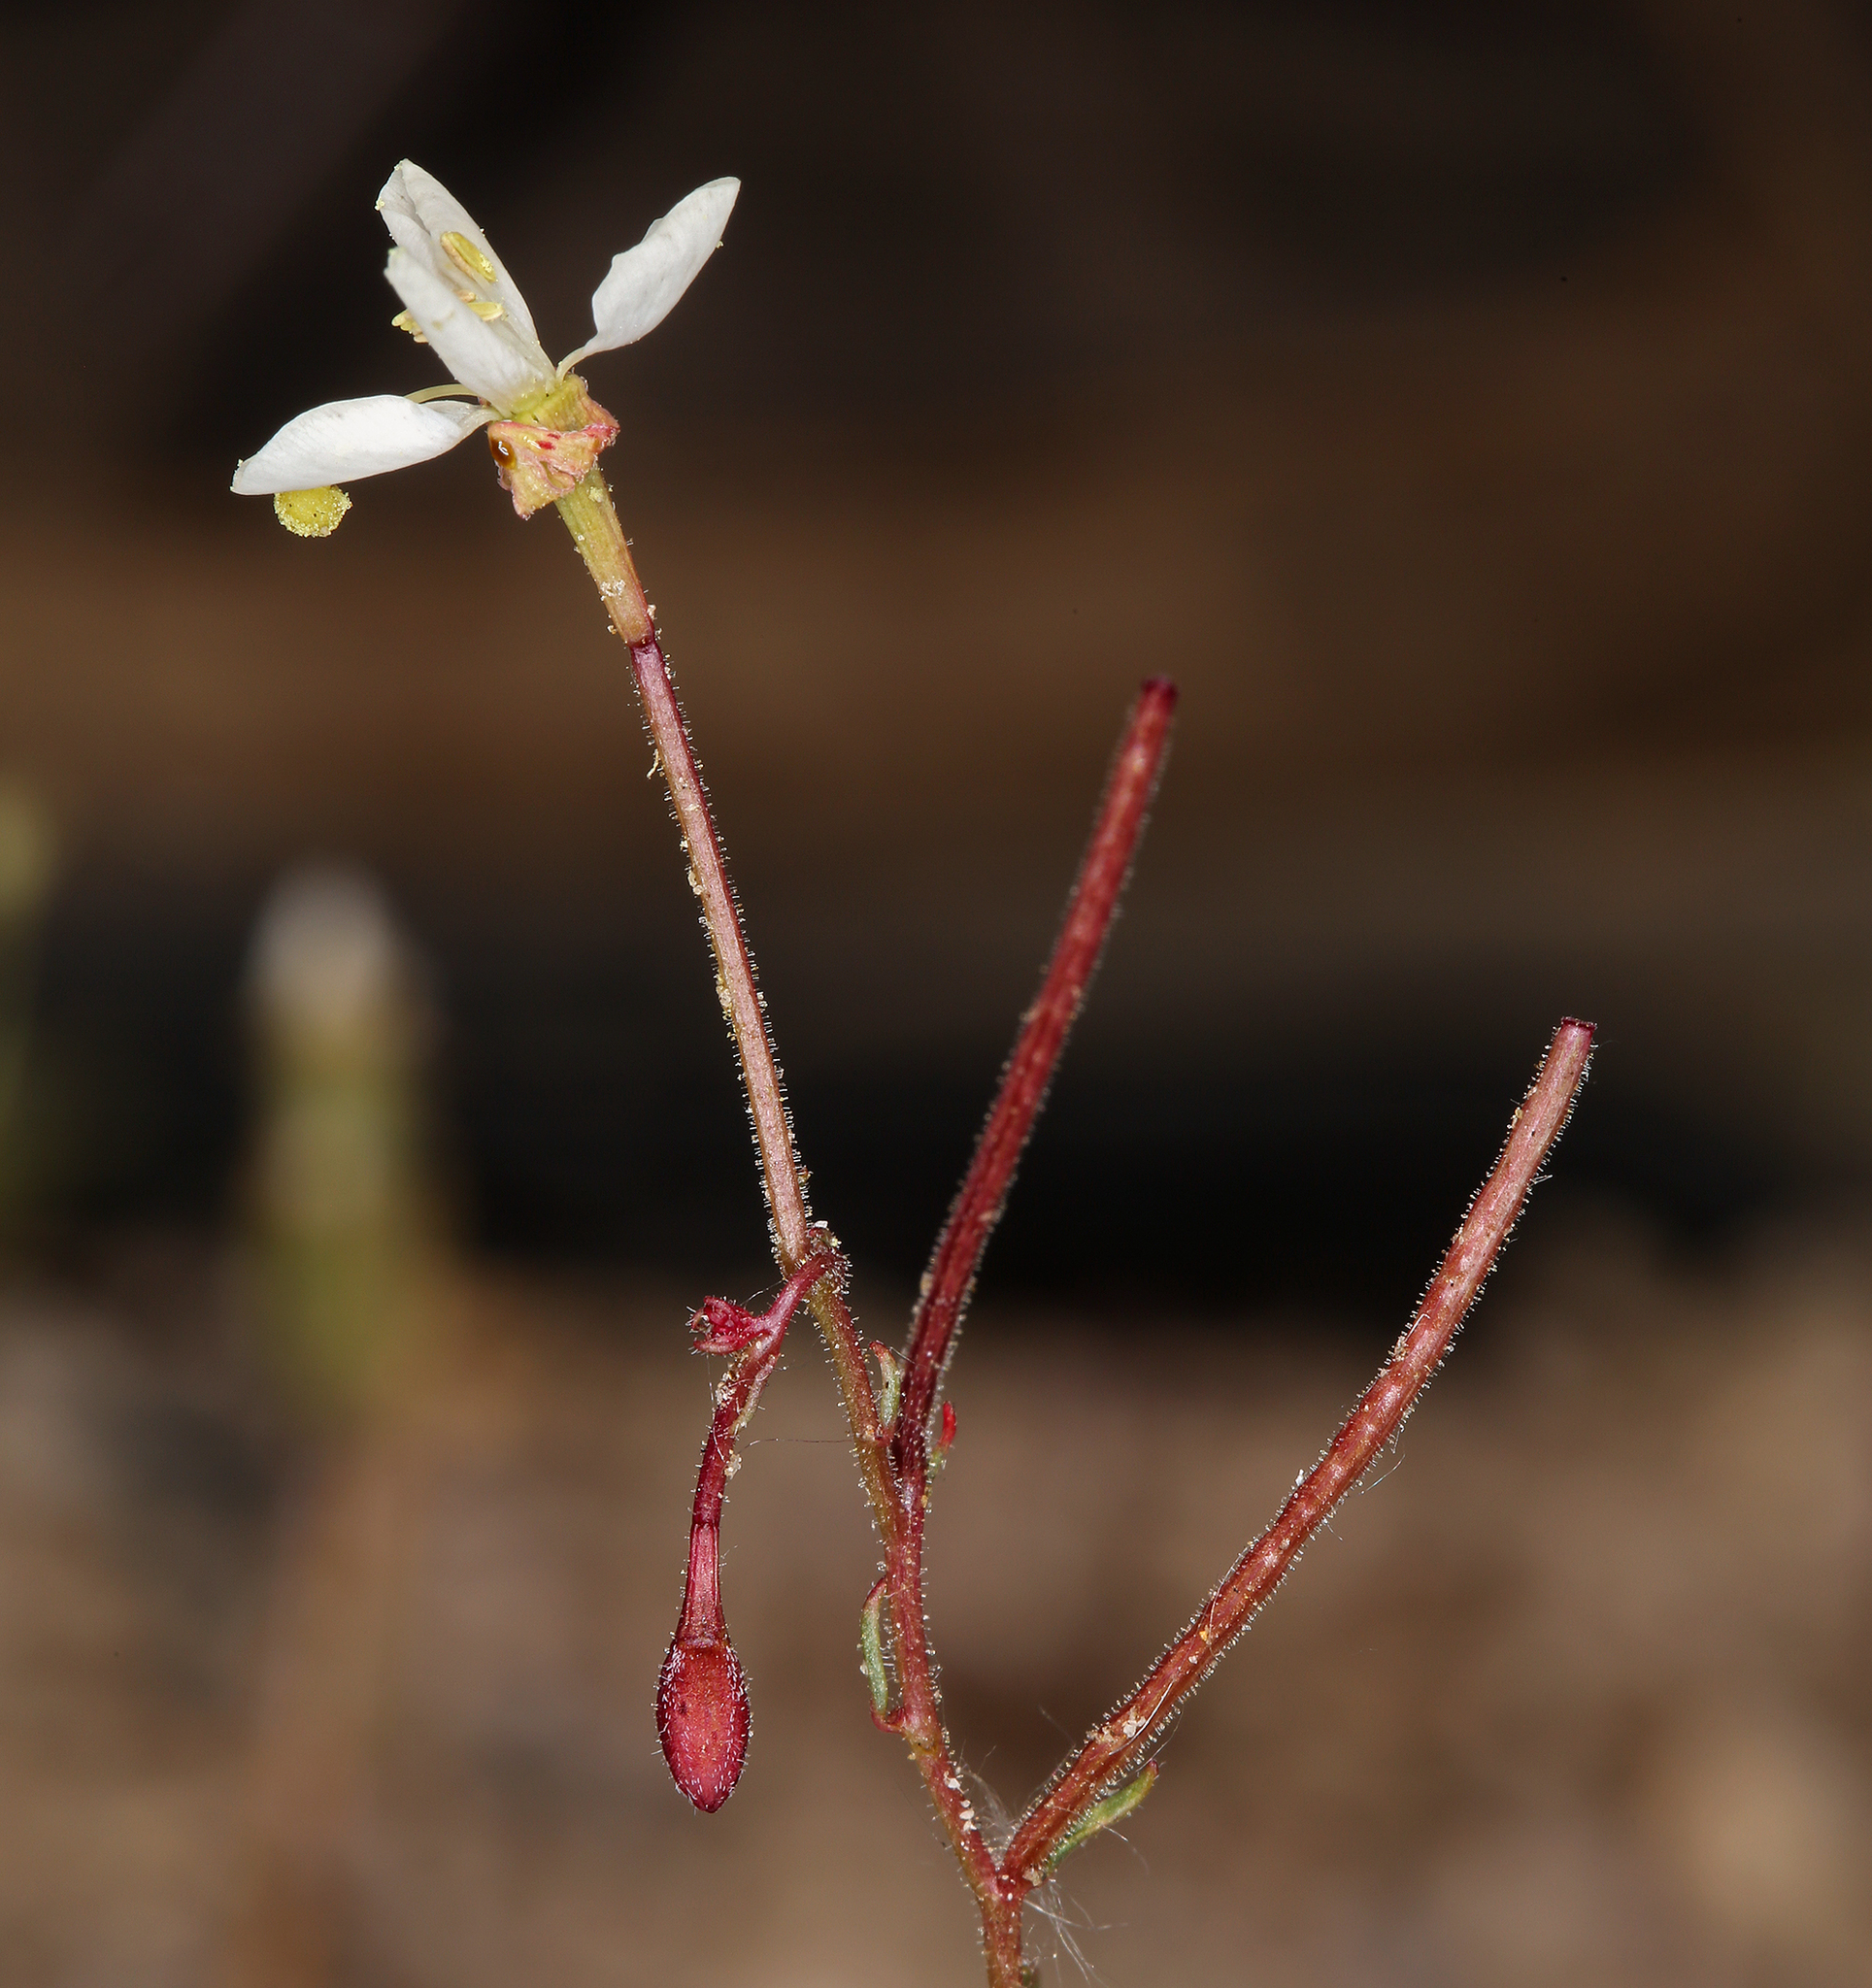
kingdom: Plantae
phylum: Tracheophyta
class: Magnoliopsida
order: Myrtales
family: Onagraceae
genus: Eremothera
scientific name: Eremothera refracta
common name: Narrowleaf suncup
